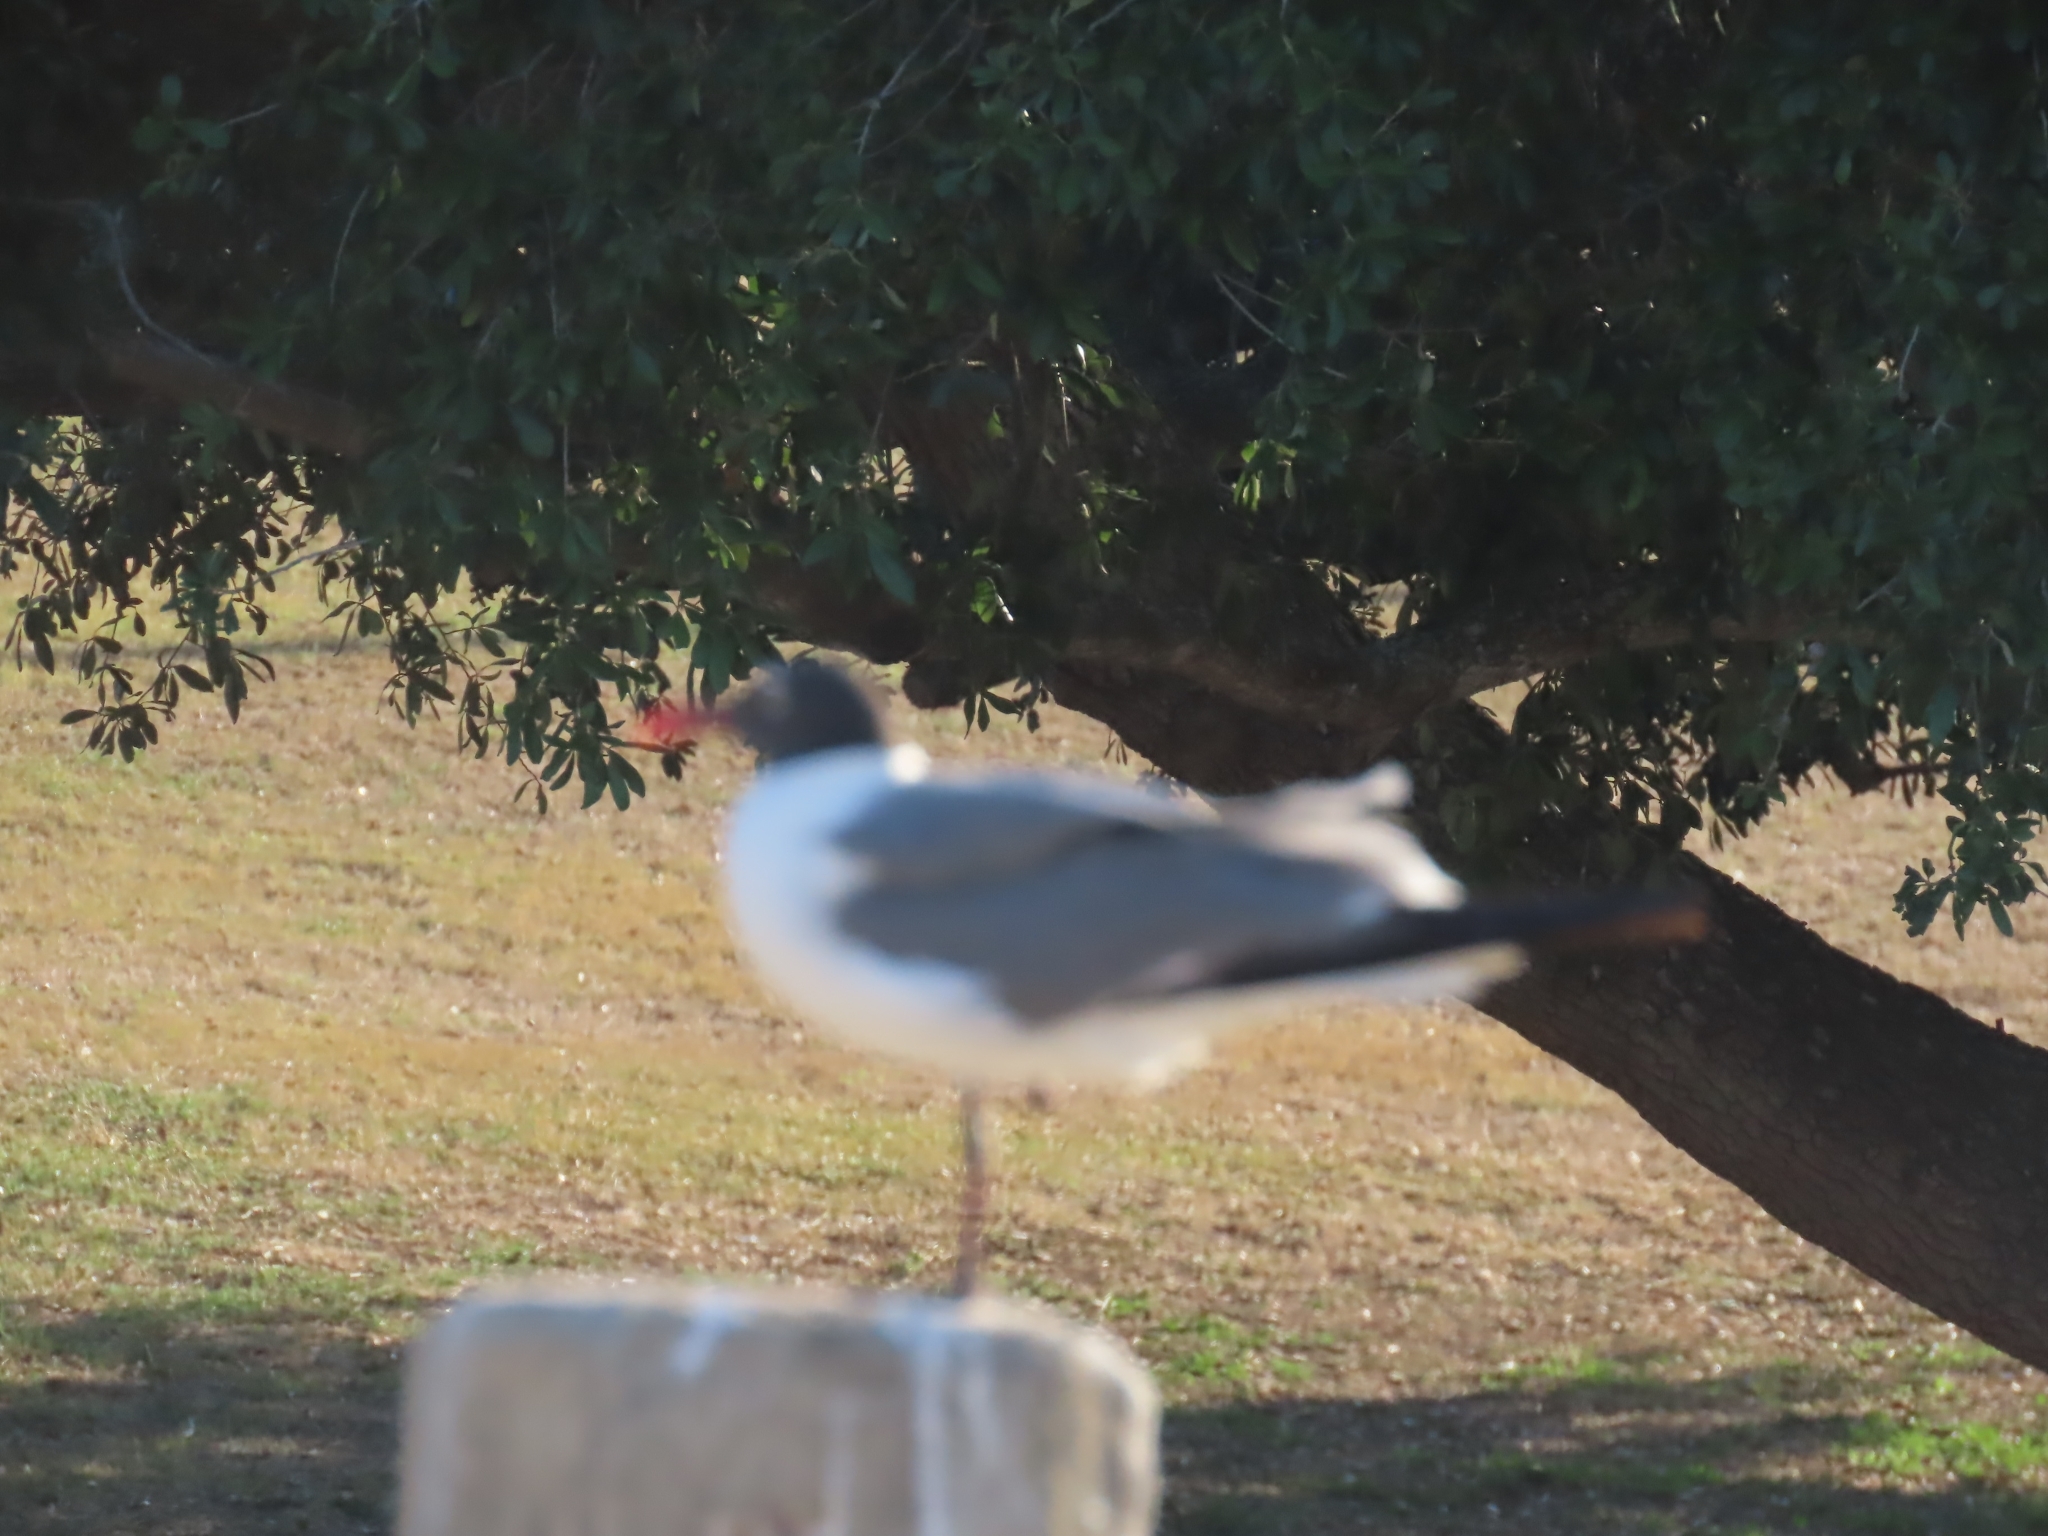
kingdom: Animalia
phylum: Chordata
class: Aves
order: Charadriiformes
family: Laridae
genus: Leucophaeus
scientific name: Leucophaeus atricilla
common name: Laughing gull
